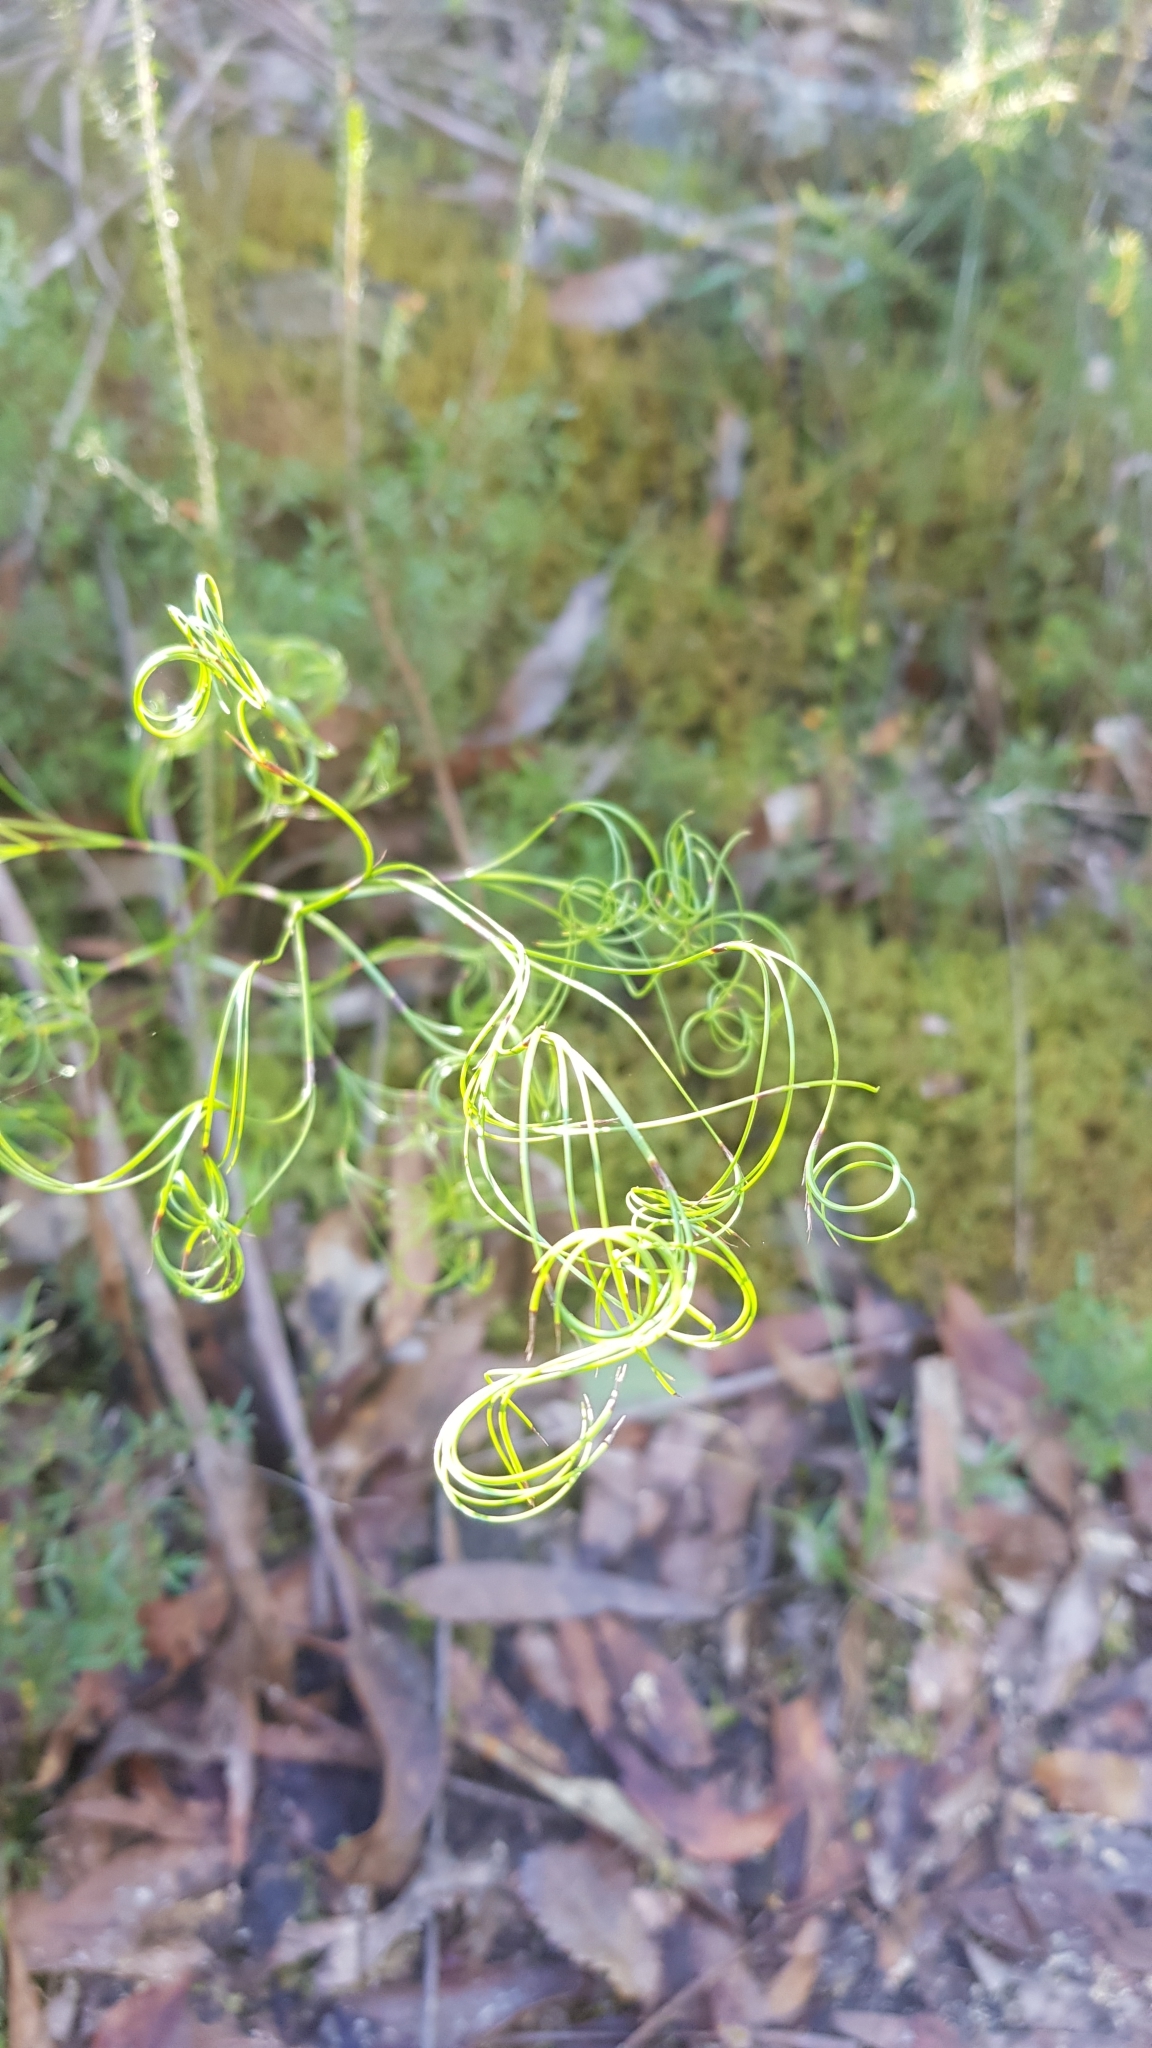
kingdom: Plantae
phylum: Tracheophyta
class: Liliopsida
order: Poales
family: Cyperaceae
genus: Caustis
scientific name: Caustis flexuosa
